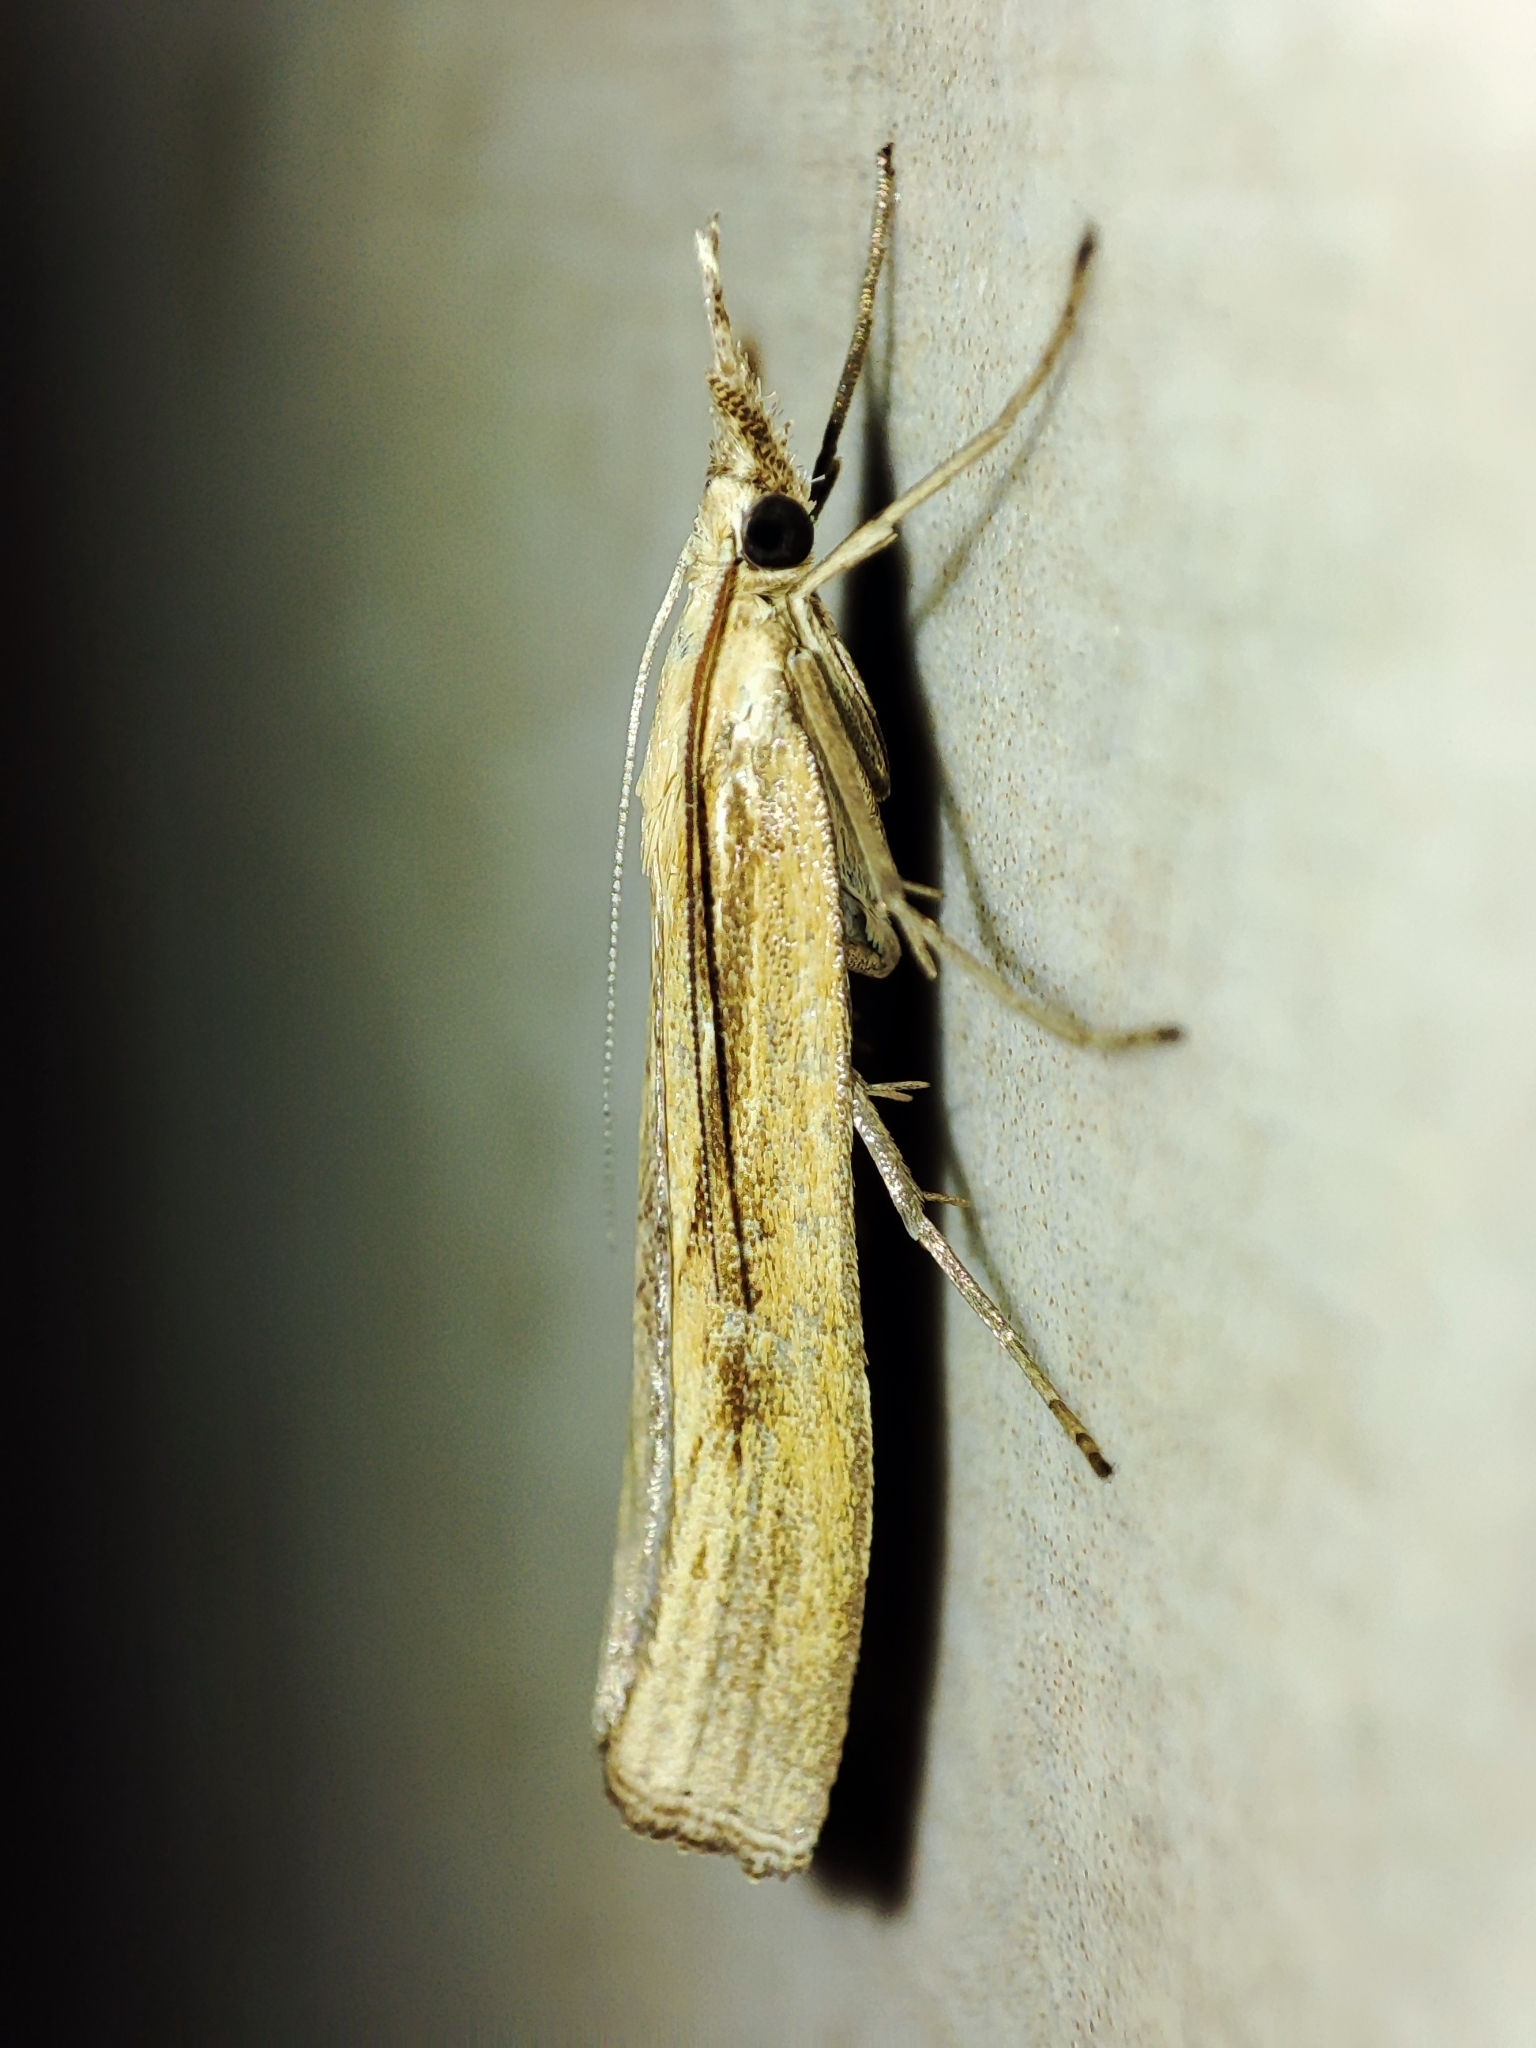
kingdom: Animalia
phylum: Arthropoda
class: Insecta
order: Lepidoptera
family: Crambidae
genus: Agriphila
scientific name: Agriphila tristellus
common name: Common grass-veneer
